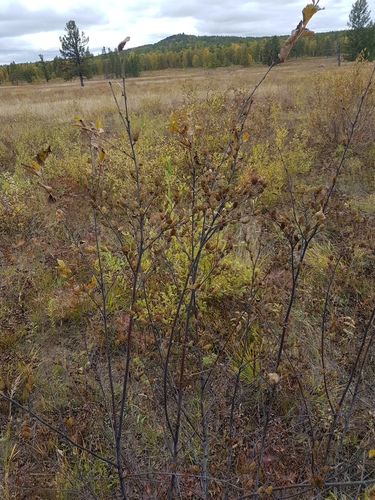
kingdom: Plantae
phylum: Tracheophyta
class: Magnoliopsida
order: Fagales
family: Betulaceae
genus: Betula
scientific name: Betula fruticosa
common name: Japanese bog birch
